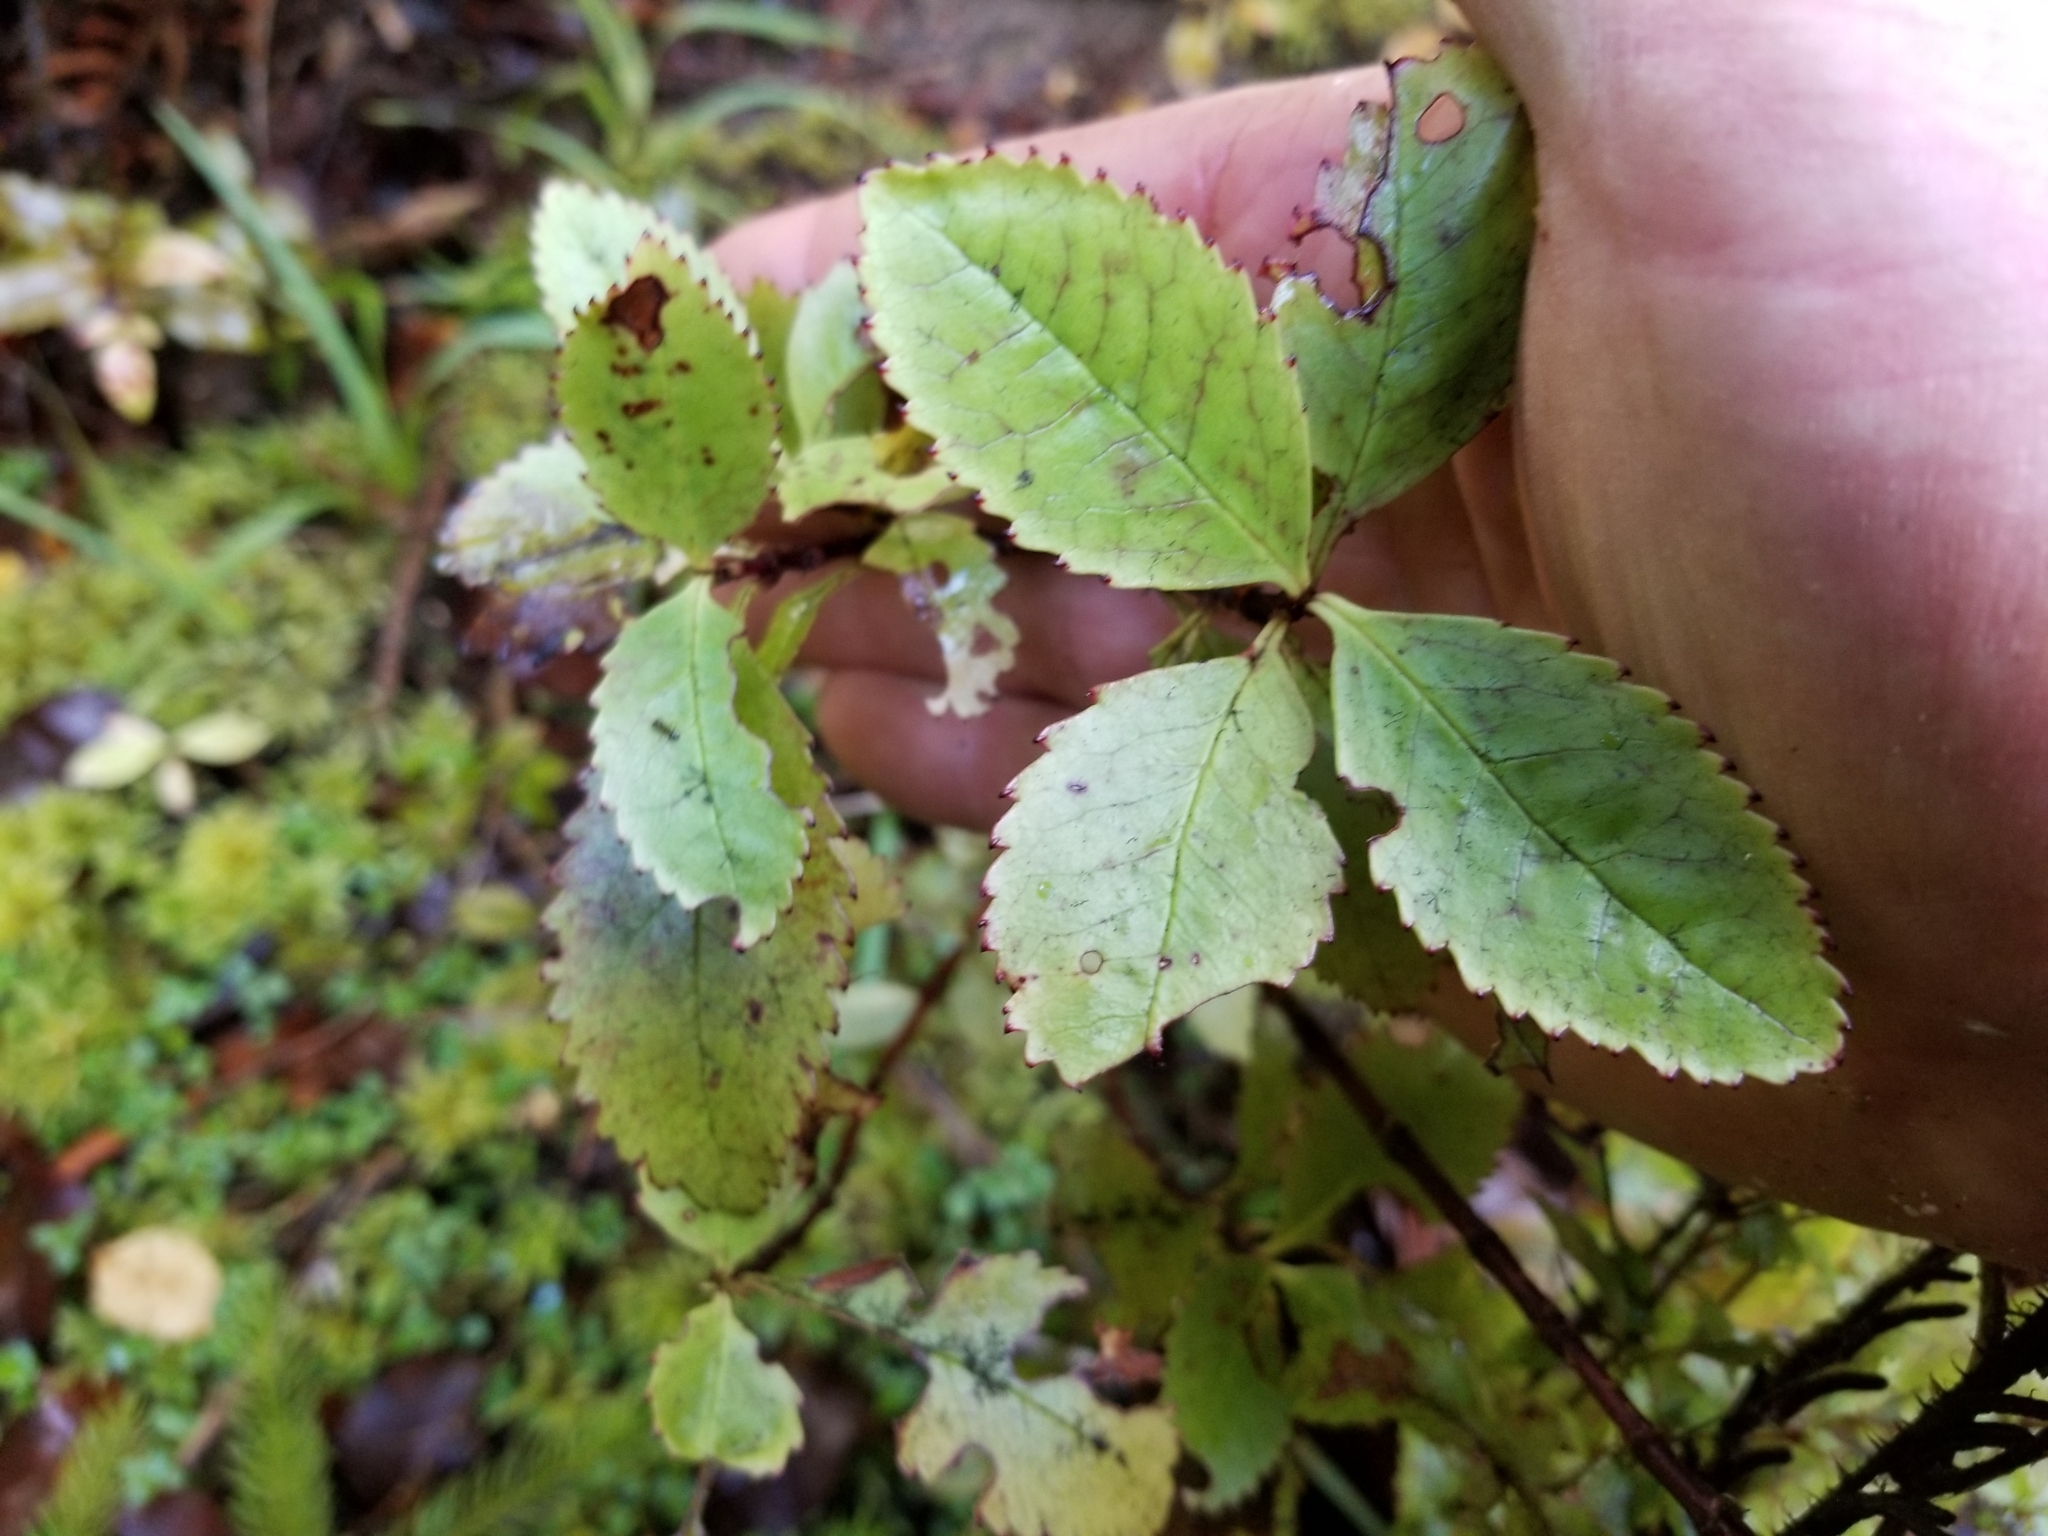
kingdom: Plantae
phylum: Tracheophyta
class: Magnoliopsida
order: Chloranthales
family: Chloranthaceae
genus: Ascarina
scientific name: Ascarina lucida
